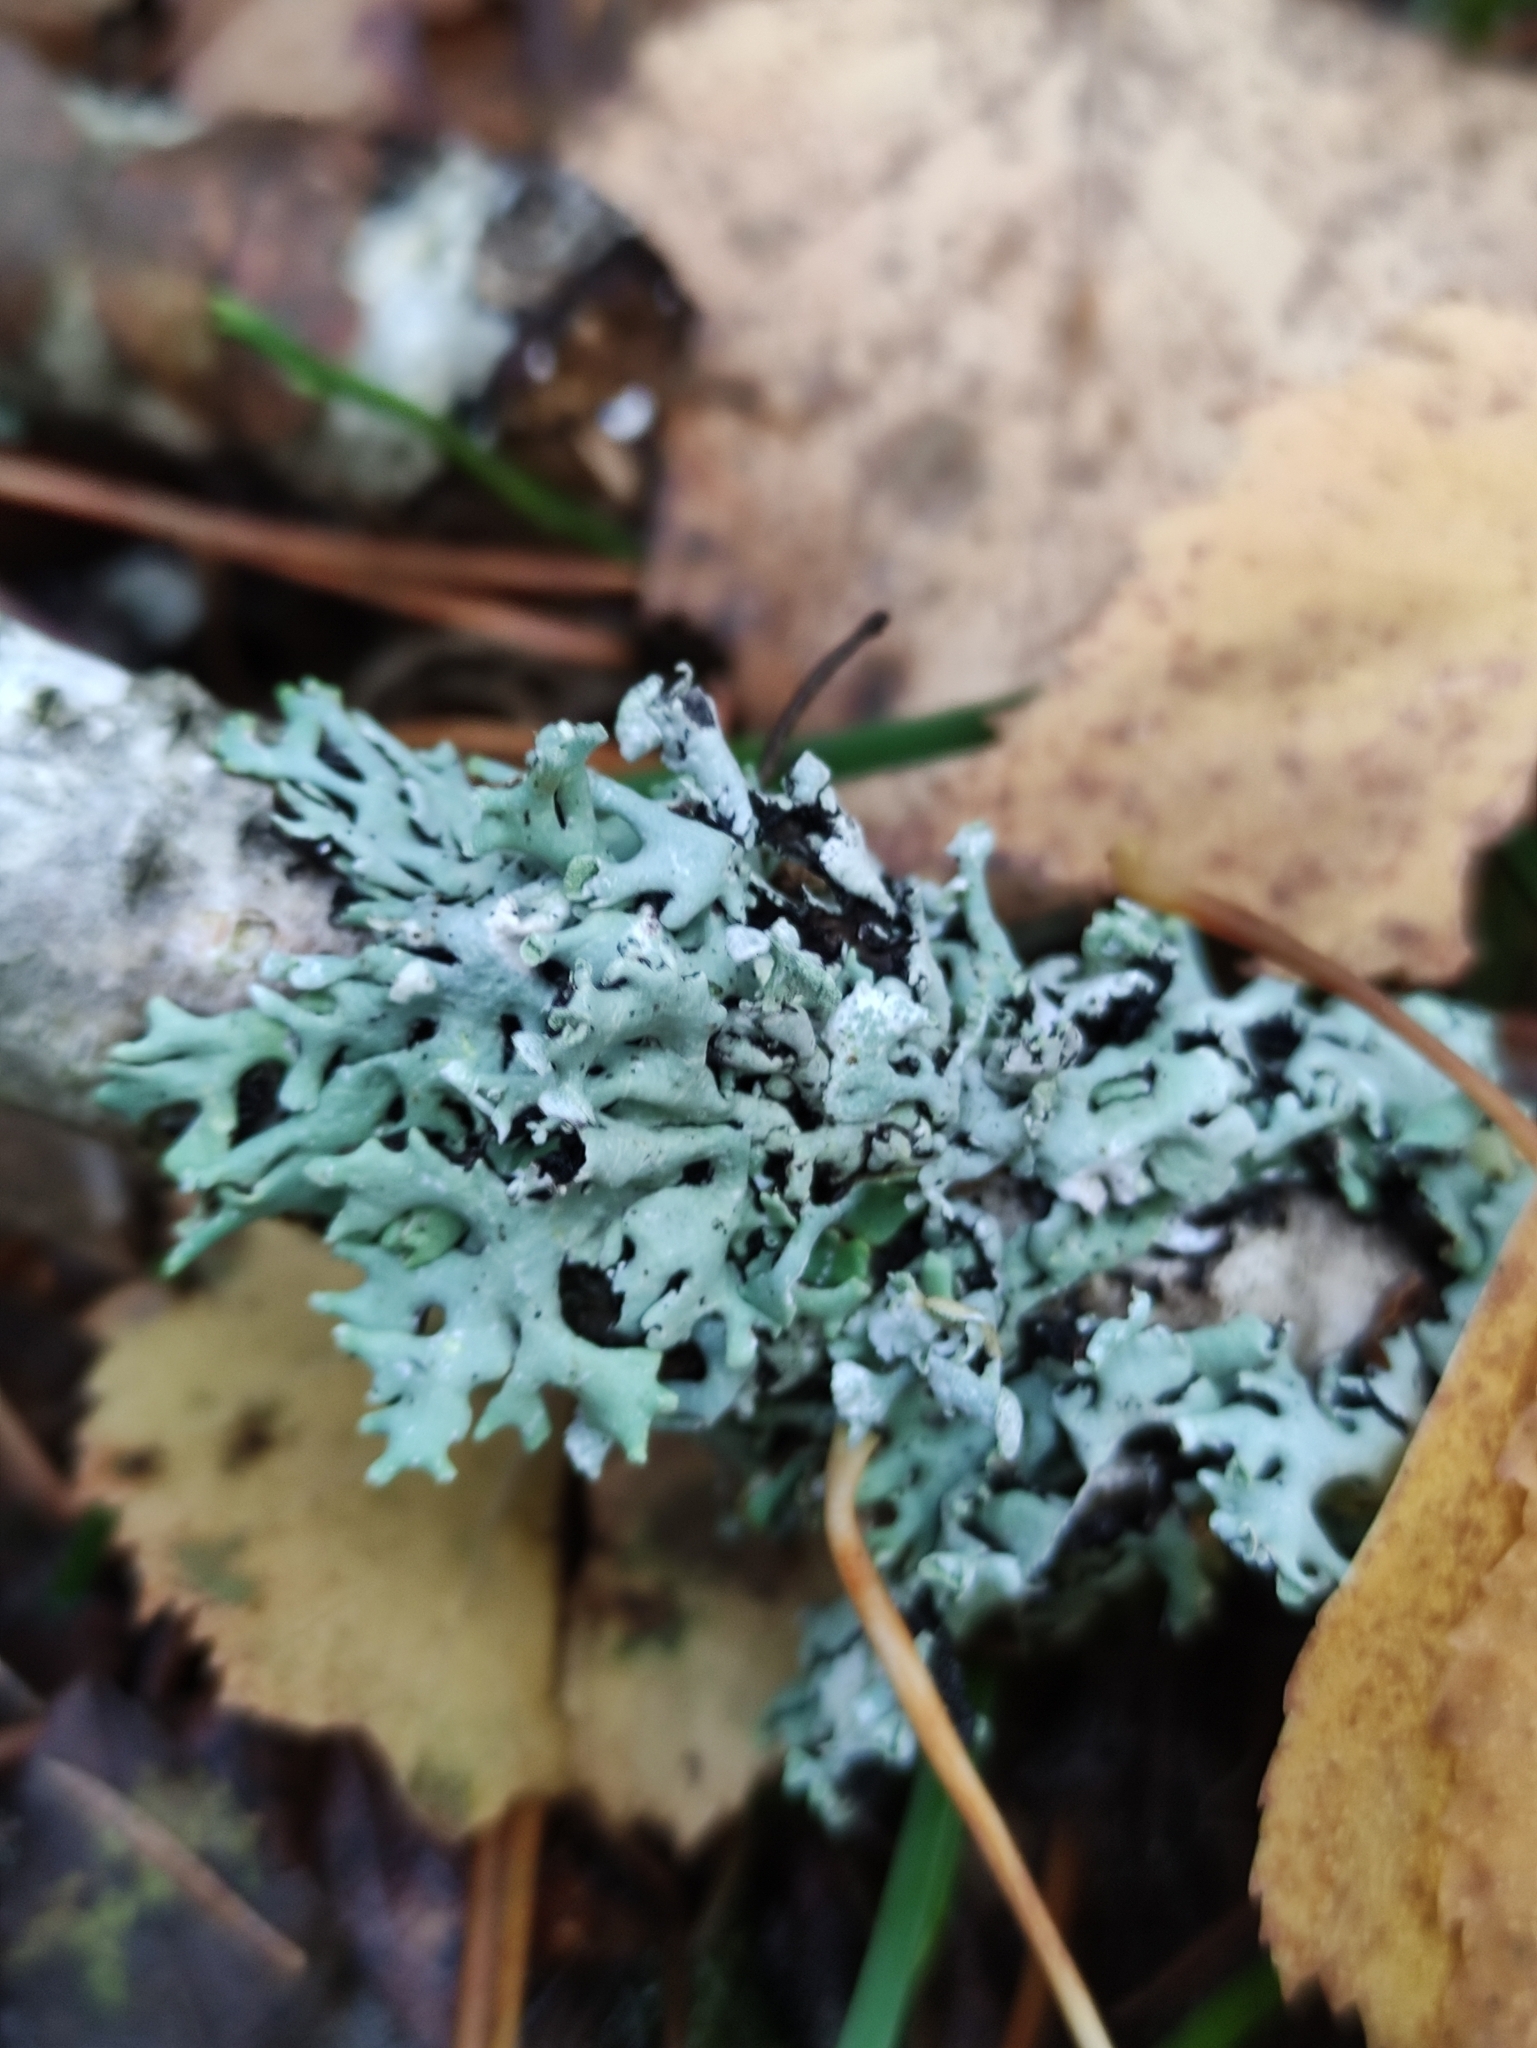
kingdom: Fungi
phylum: Ascomycota
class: Lecanoromycetes
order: Lecanorales
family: Parmeliaceae
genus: Hypogymnia
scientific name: Hypogymnia physodes
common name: Dark crottle
